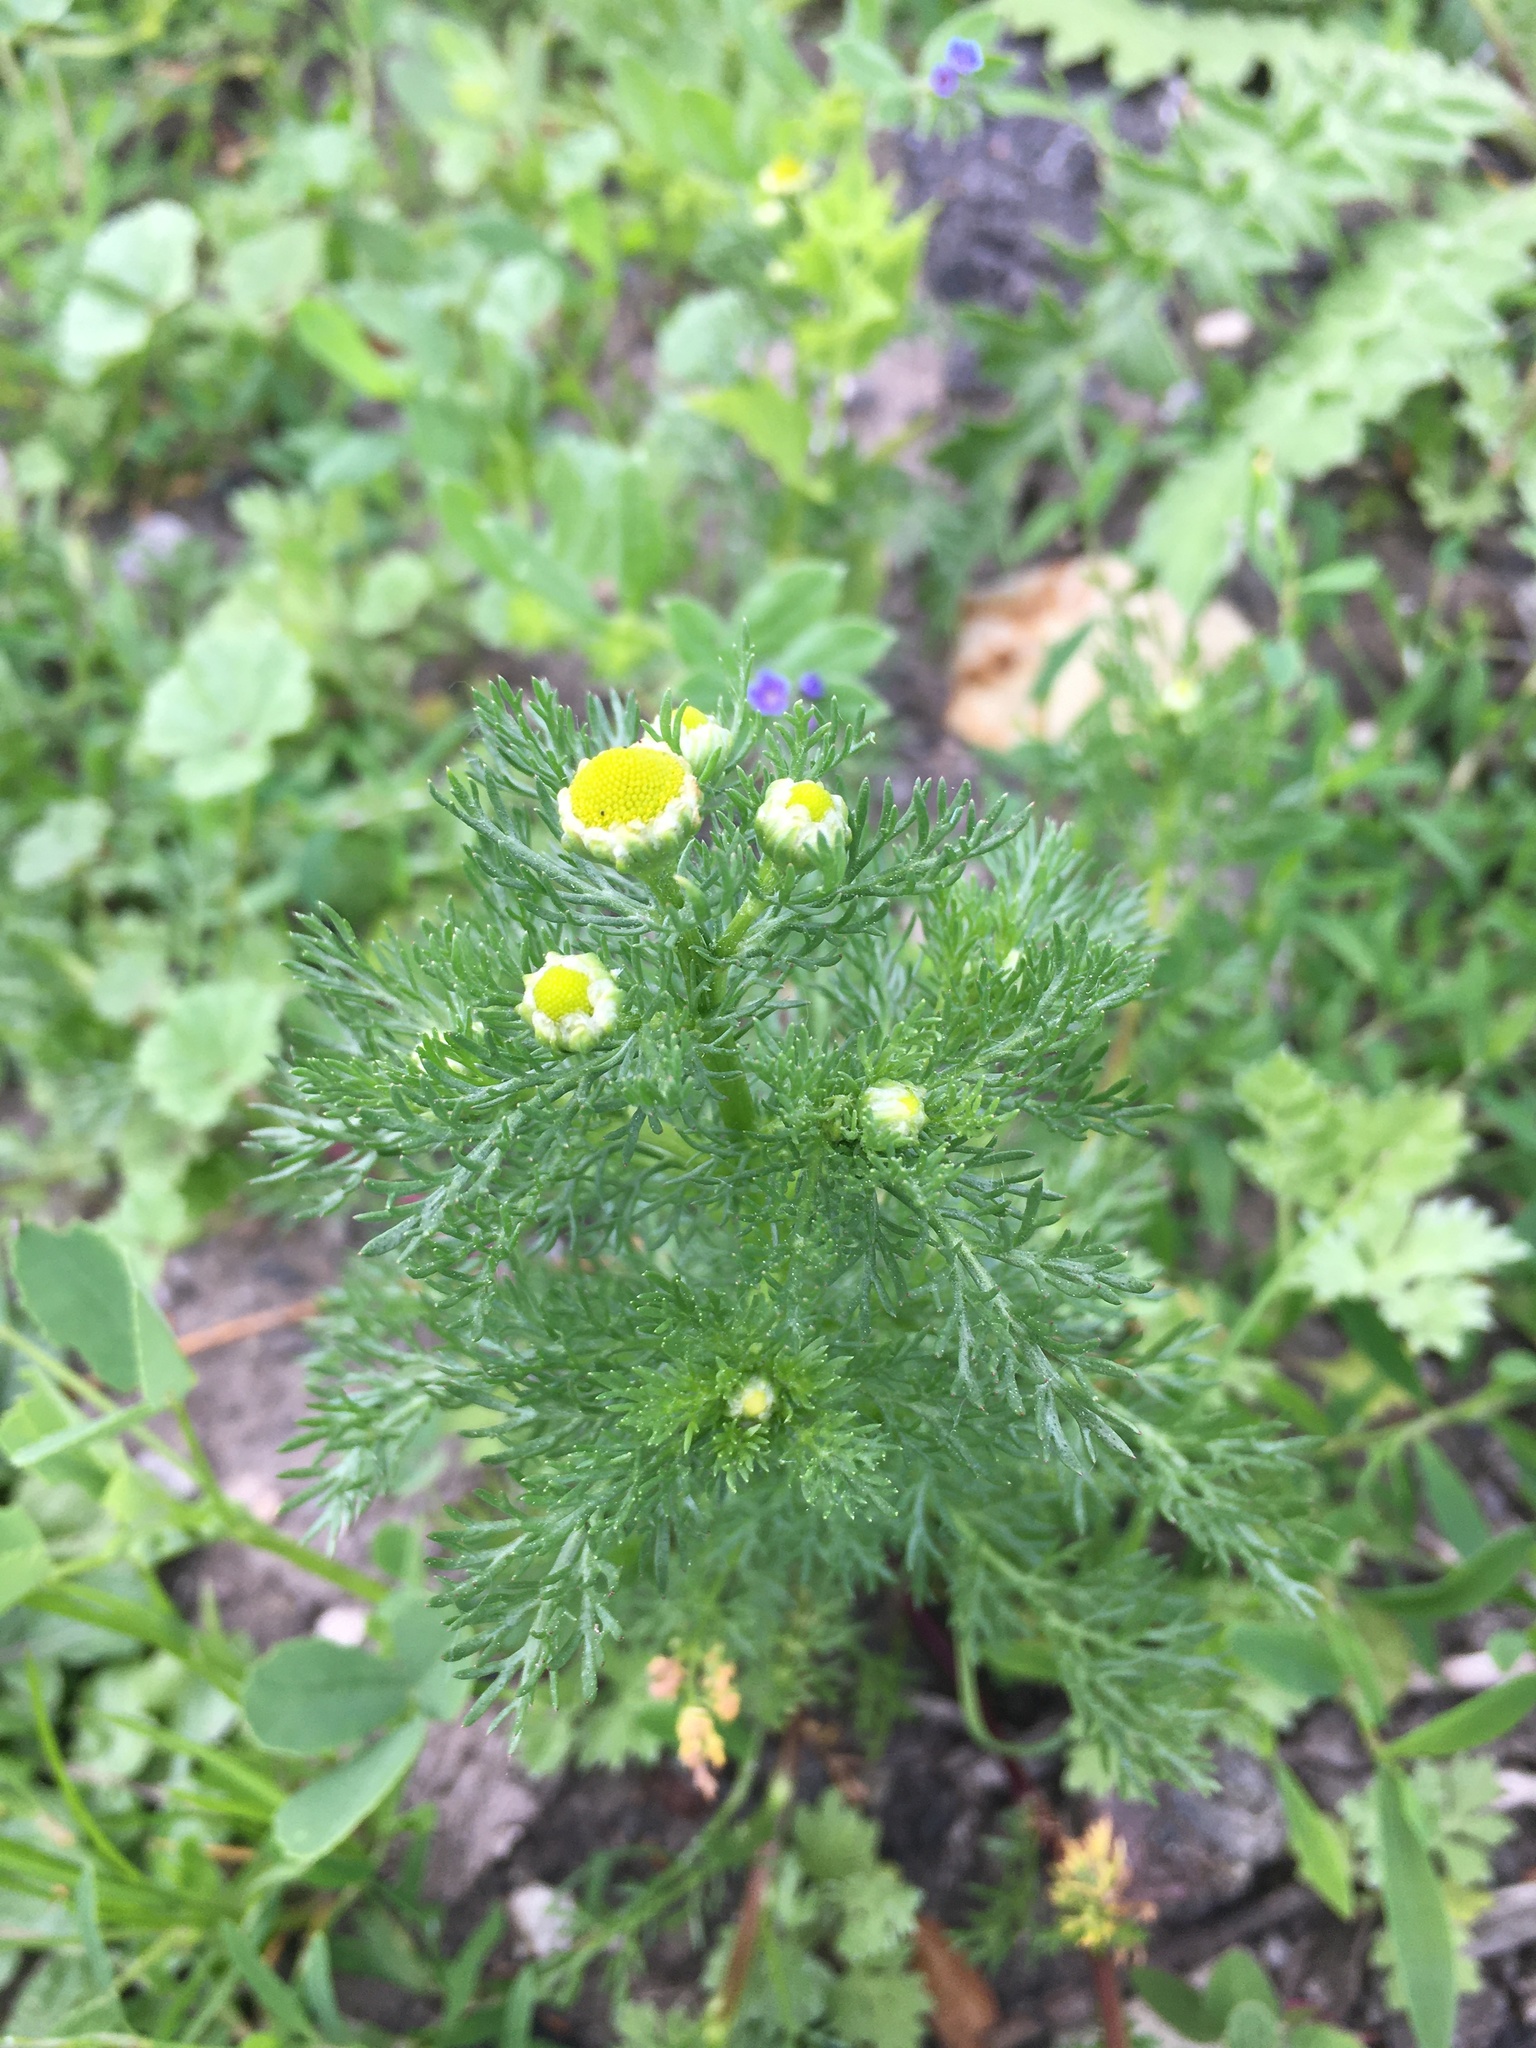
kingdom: Plantae
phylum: Tracheophyta
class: Magnoliopsida
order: Asterales
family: Asteraceae
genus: Matricaria
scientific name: Matricaria discoidea
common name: Disc mayweed
